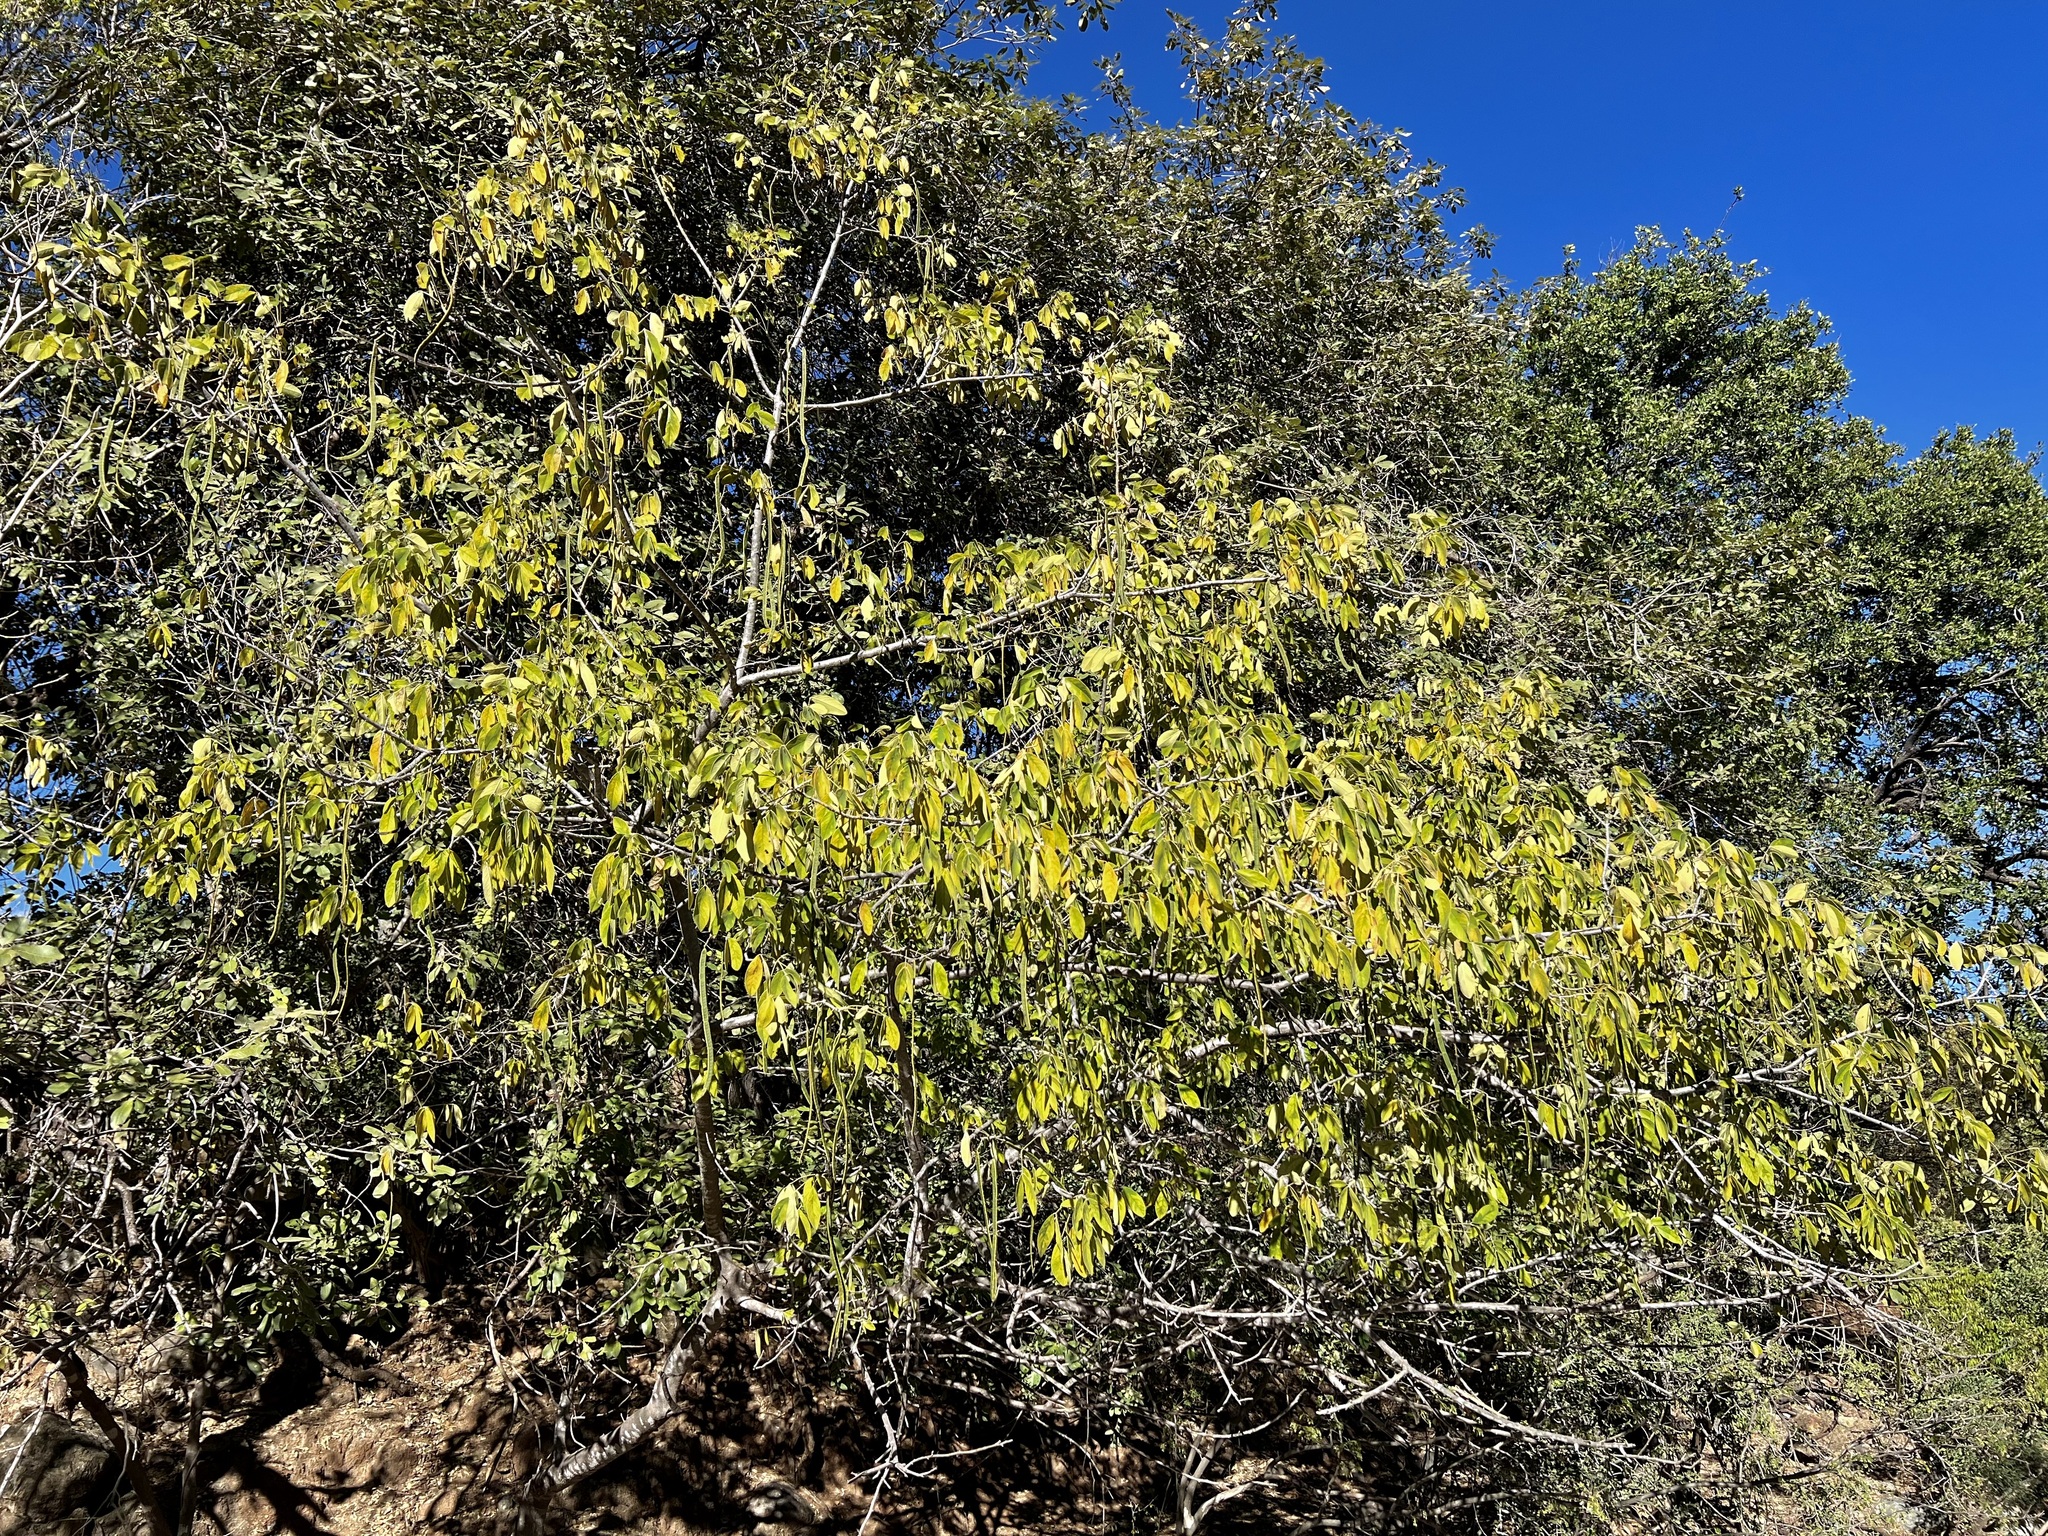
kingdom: Plantae
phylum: Tracheophyta
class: Magnoliopsida
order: Fabales
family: Fabaceae
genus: Senna
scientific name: Senna atomaria
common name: Flor de san jose
